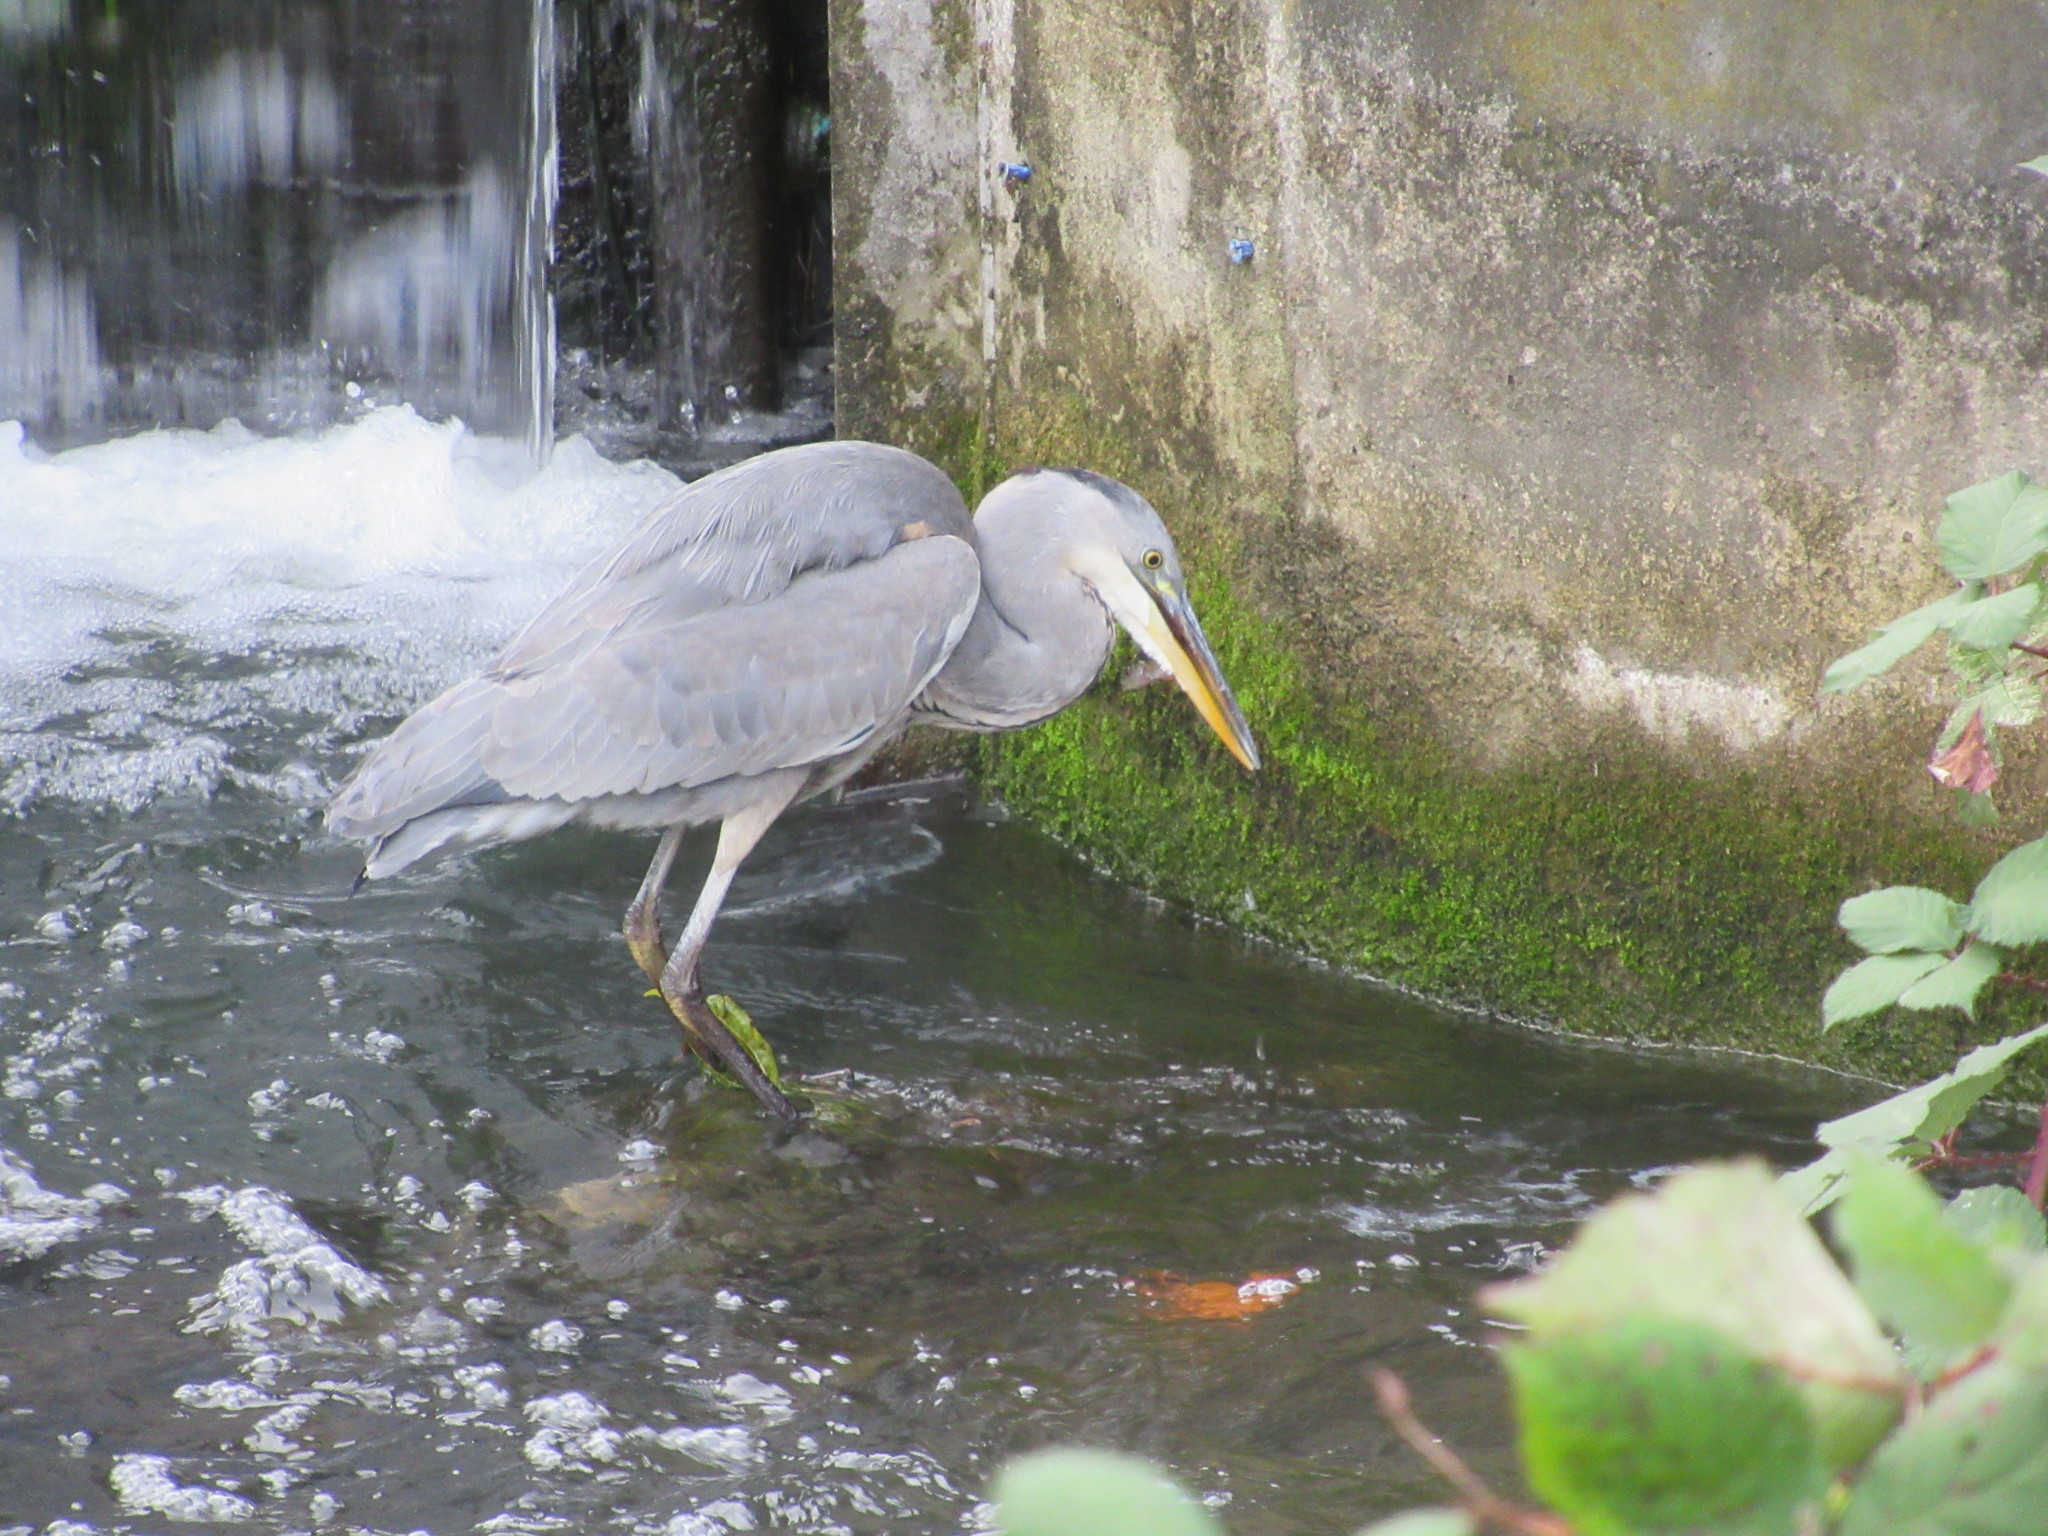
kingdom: Animalia
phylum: Chordata
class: Aves
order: Pelecaniformes
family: Ardeidae
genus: Ardea
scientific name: Ardea cinerea
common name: Grey heron
